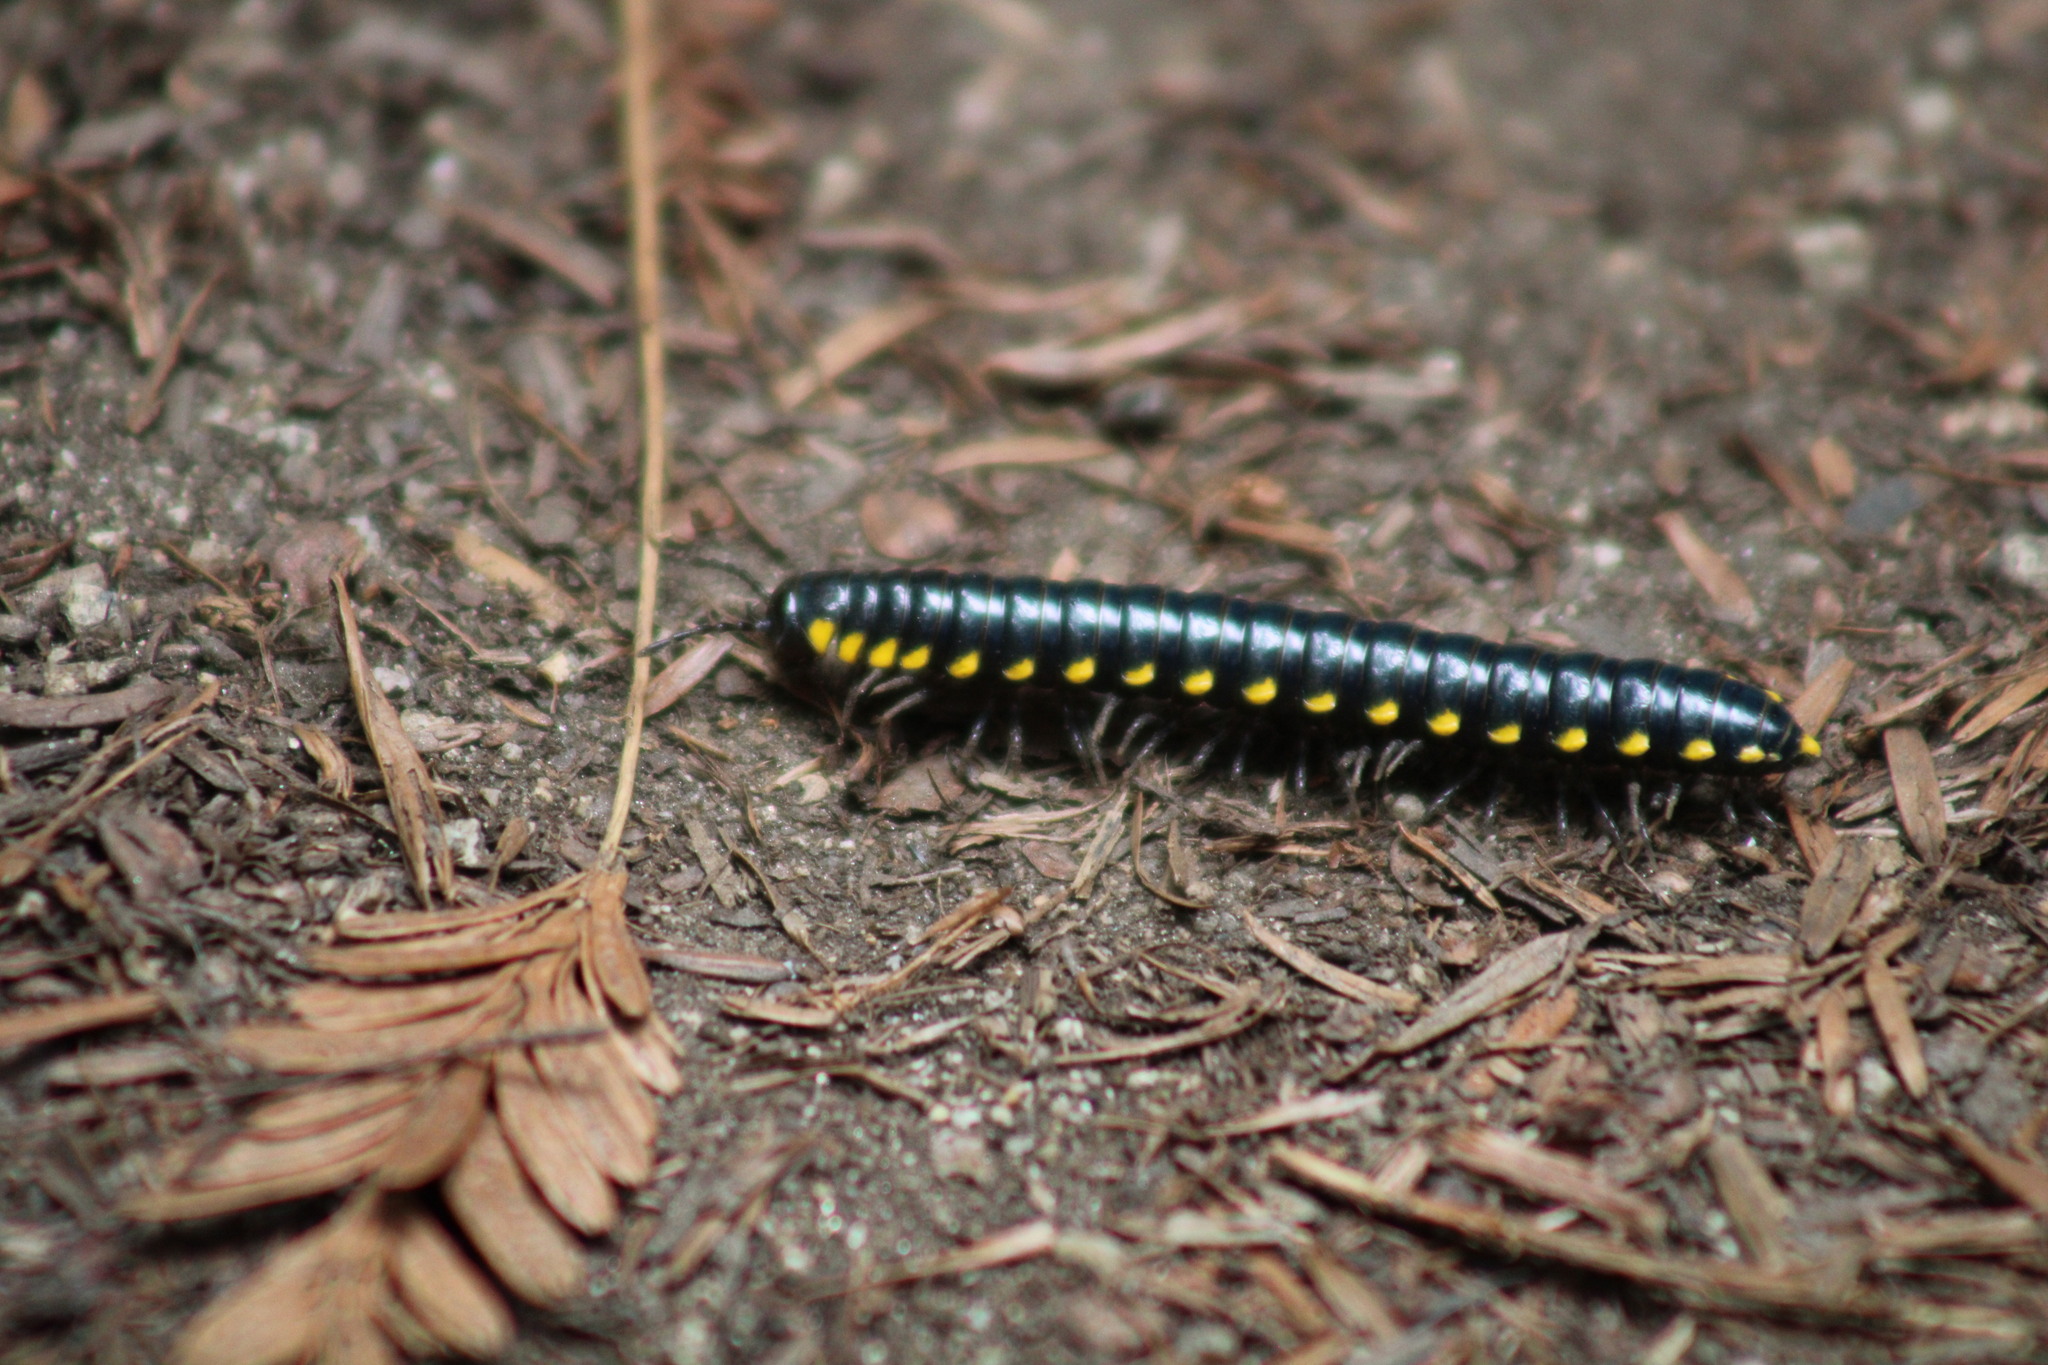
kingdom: Animalia
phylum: Arthropoda
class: Diplopoda
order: Polydesmida
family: Xystodesmidae
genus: Harpaphe
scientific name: Harpaphe haydeniana
